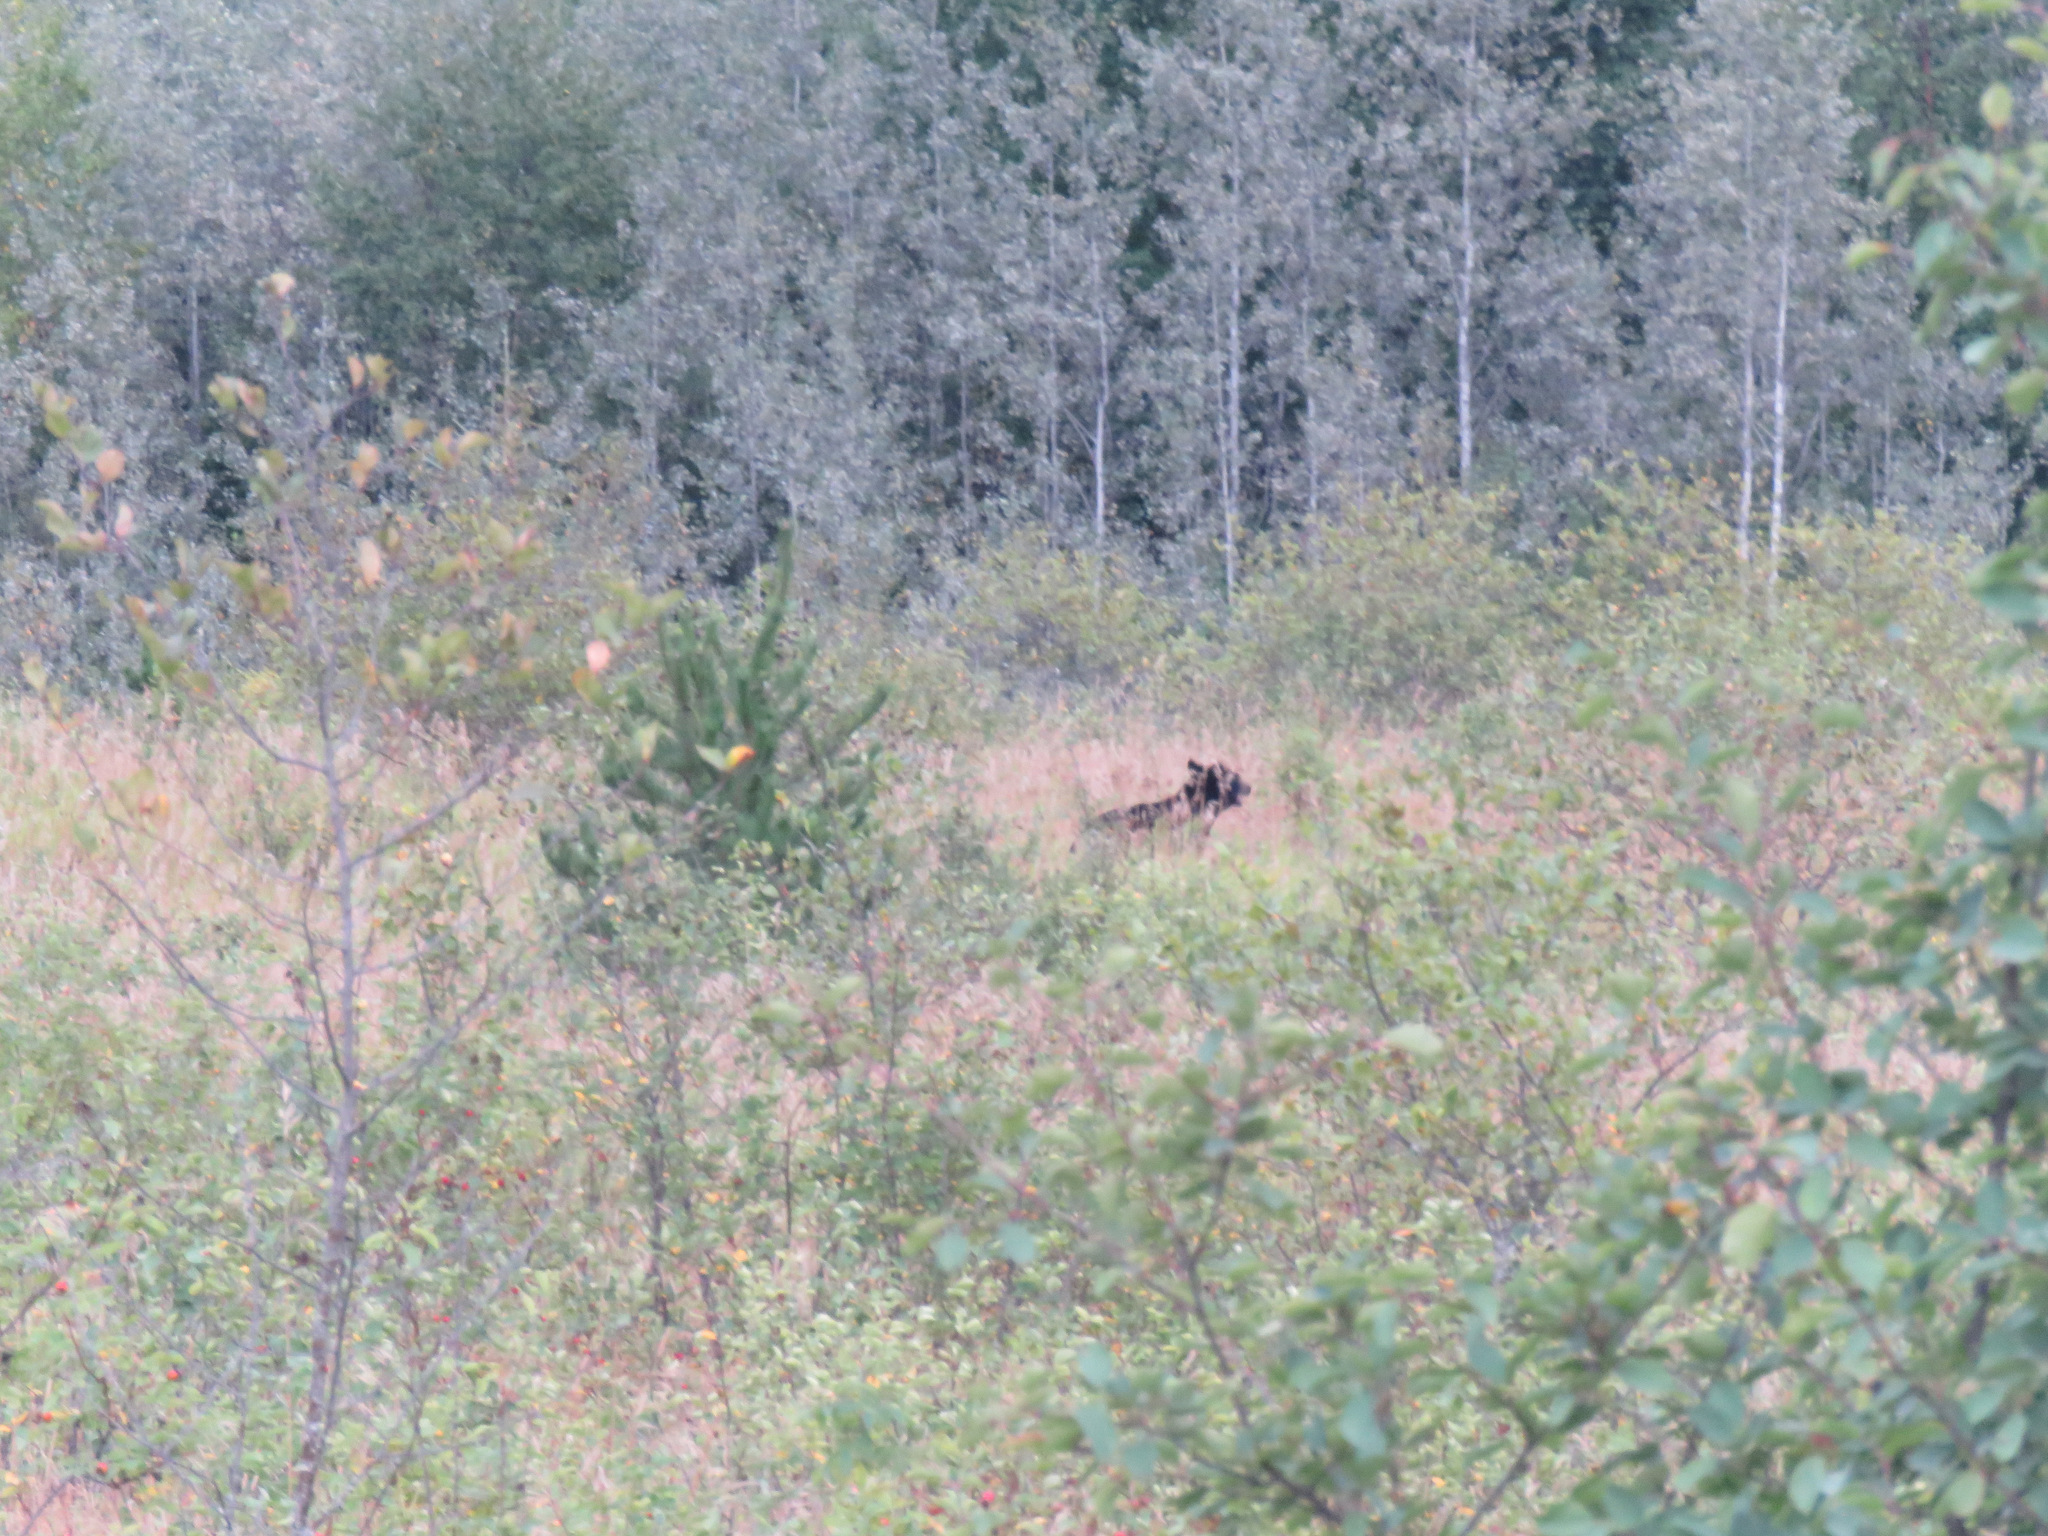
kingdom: Animalia
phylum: Chordata
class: Mammalia
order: Carnivora
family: Ursidae
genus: Ursus
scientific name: Ursus americanus
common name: American black bear
